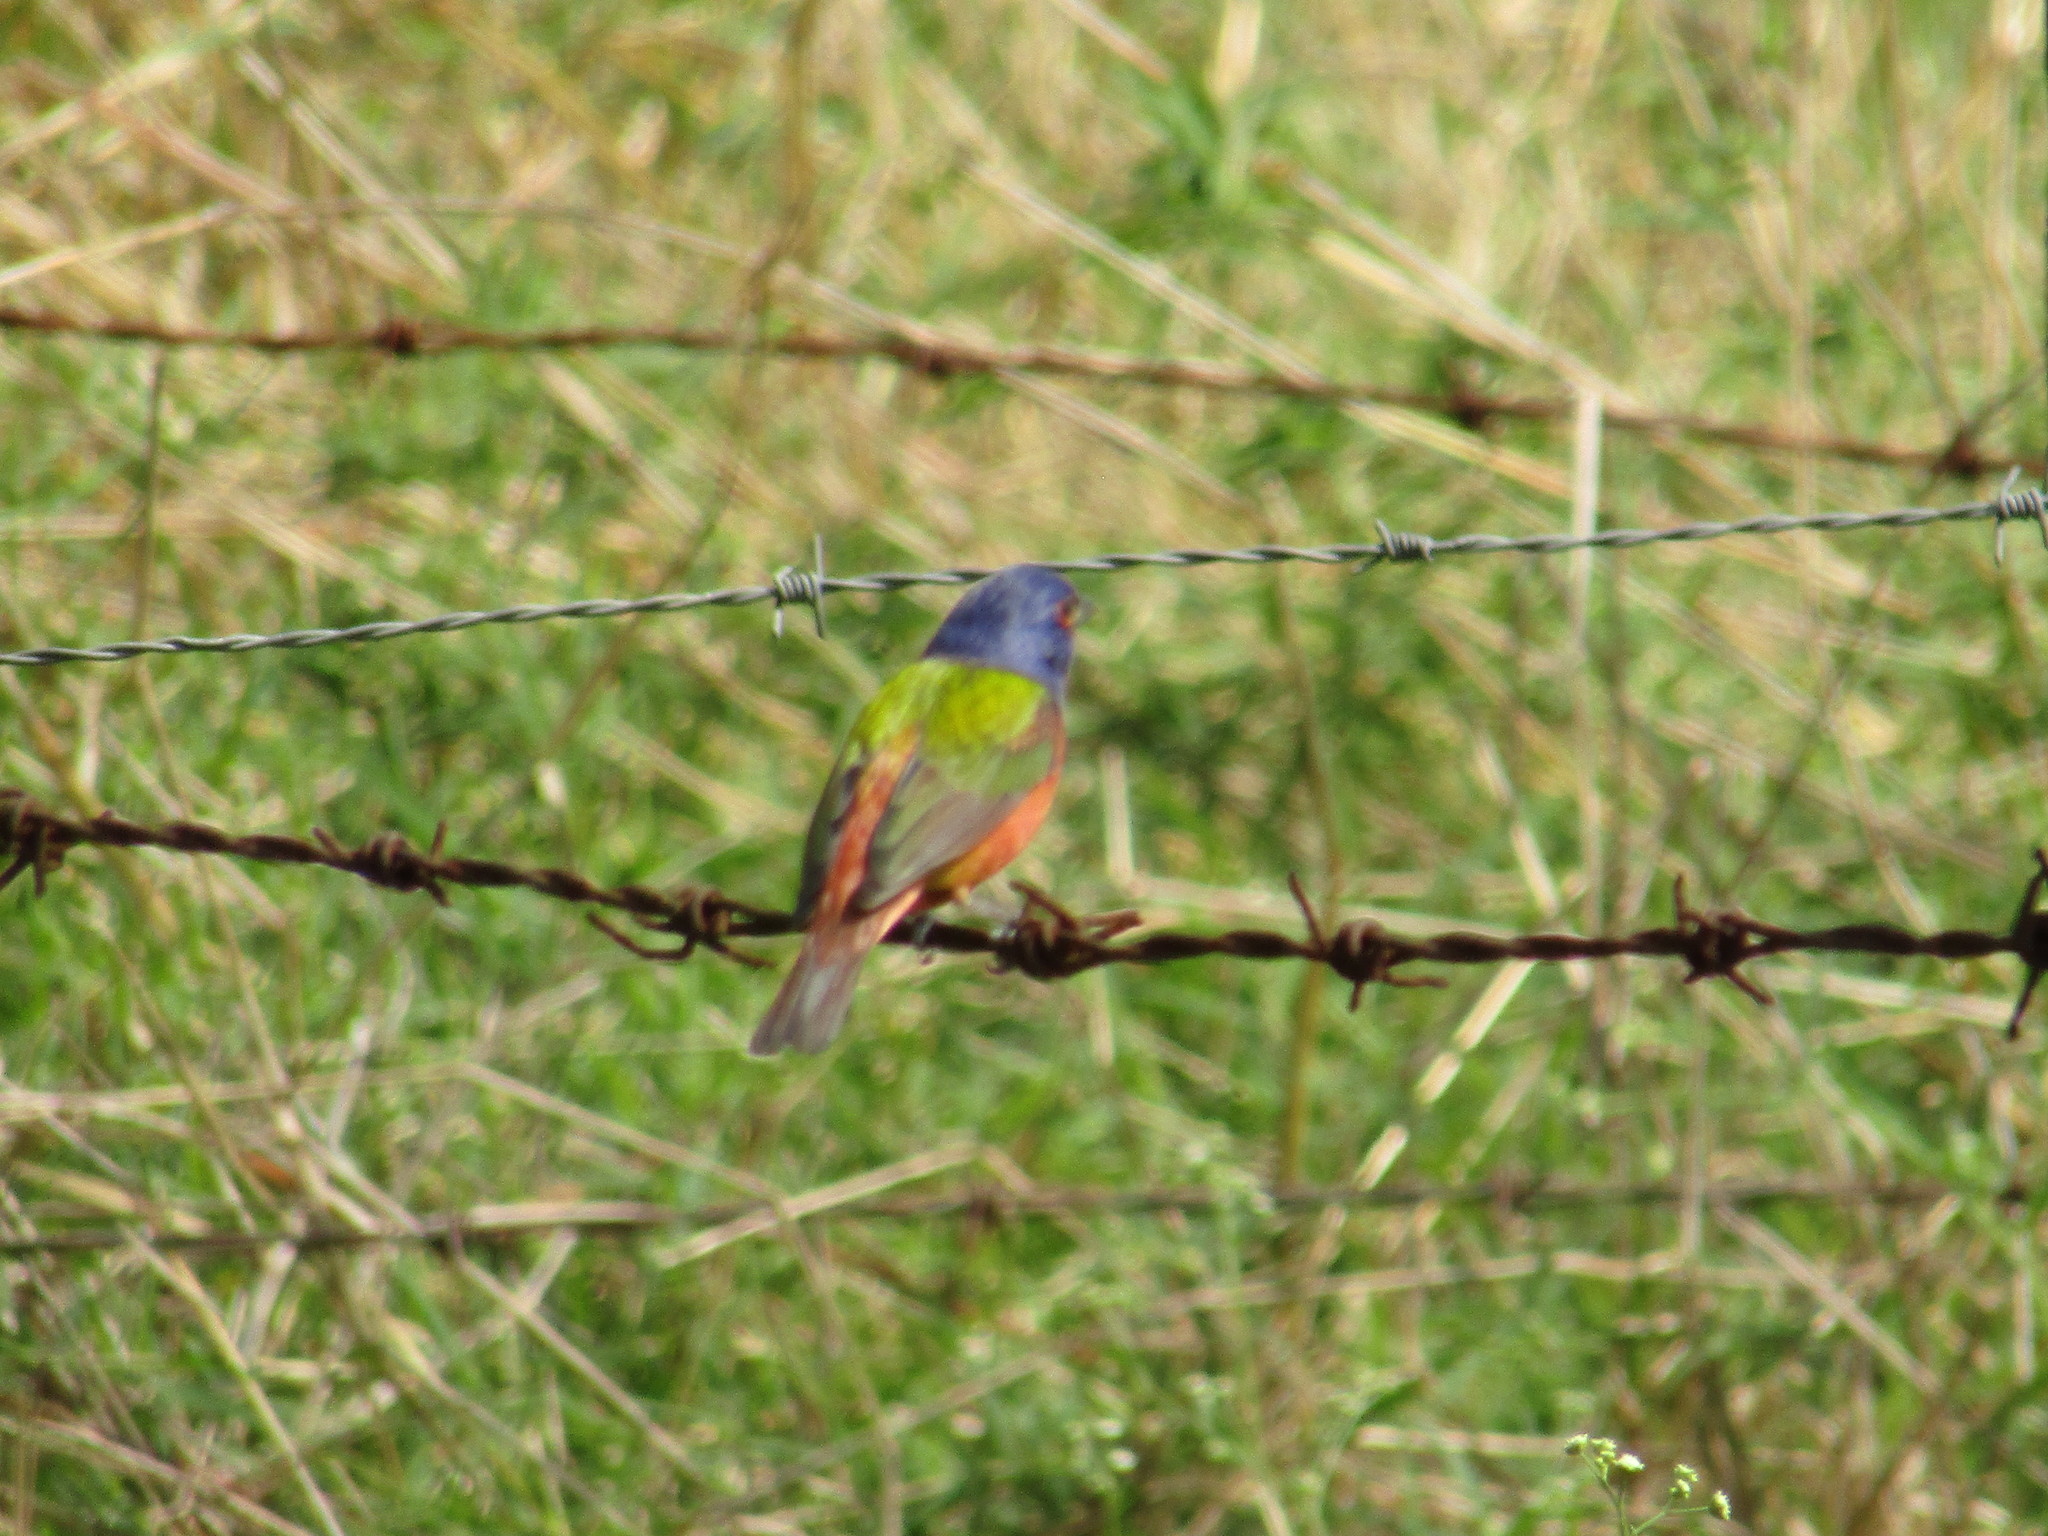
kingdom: Animalia
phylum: Chordata
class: Aves
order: Passeriformes
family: Cardinalidae
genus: Passerina
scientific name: Passerina ciris
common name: Painted bunting
